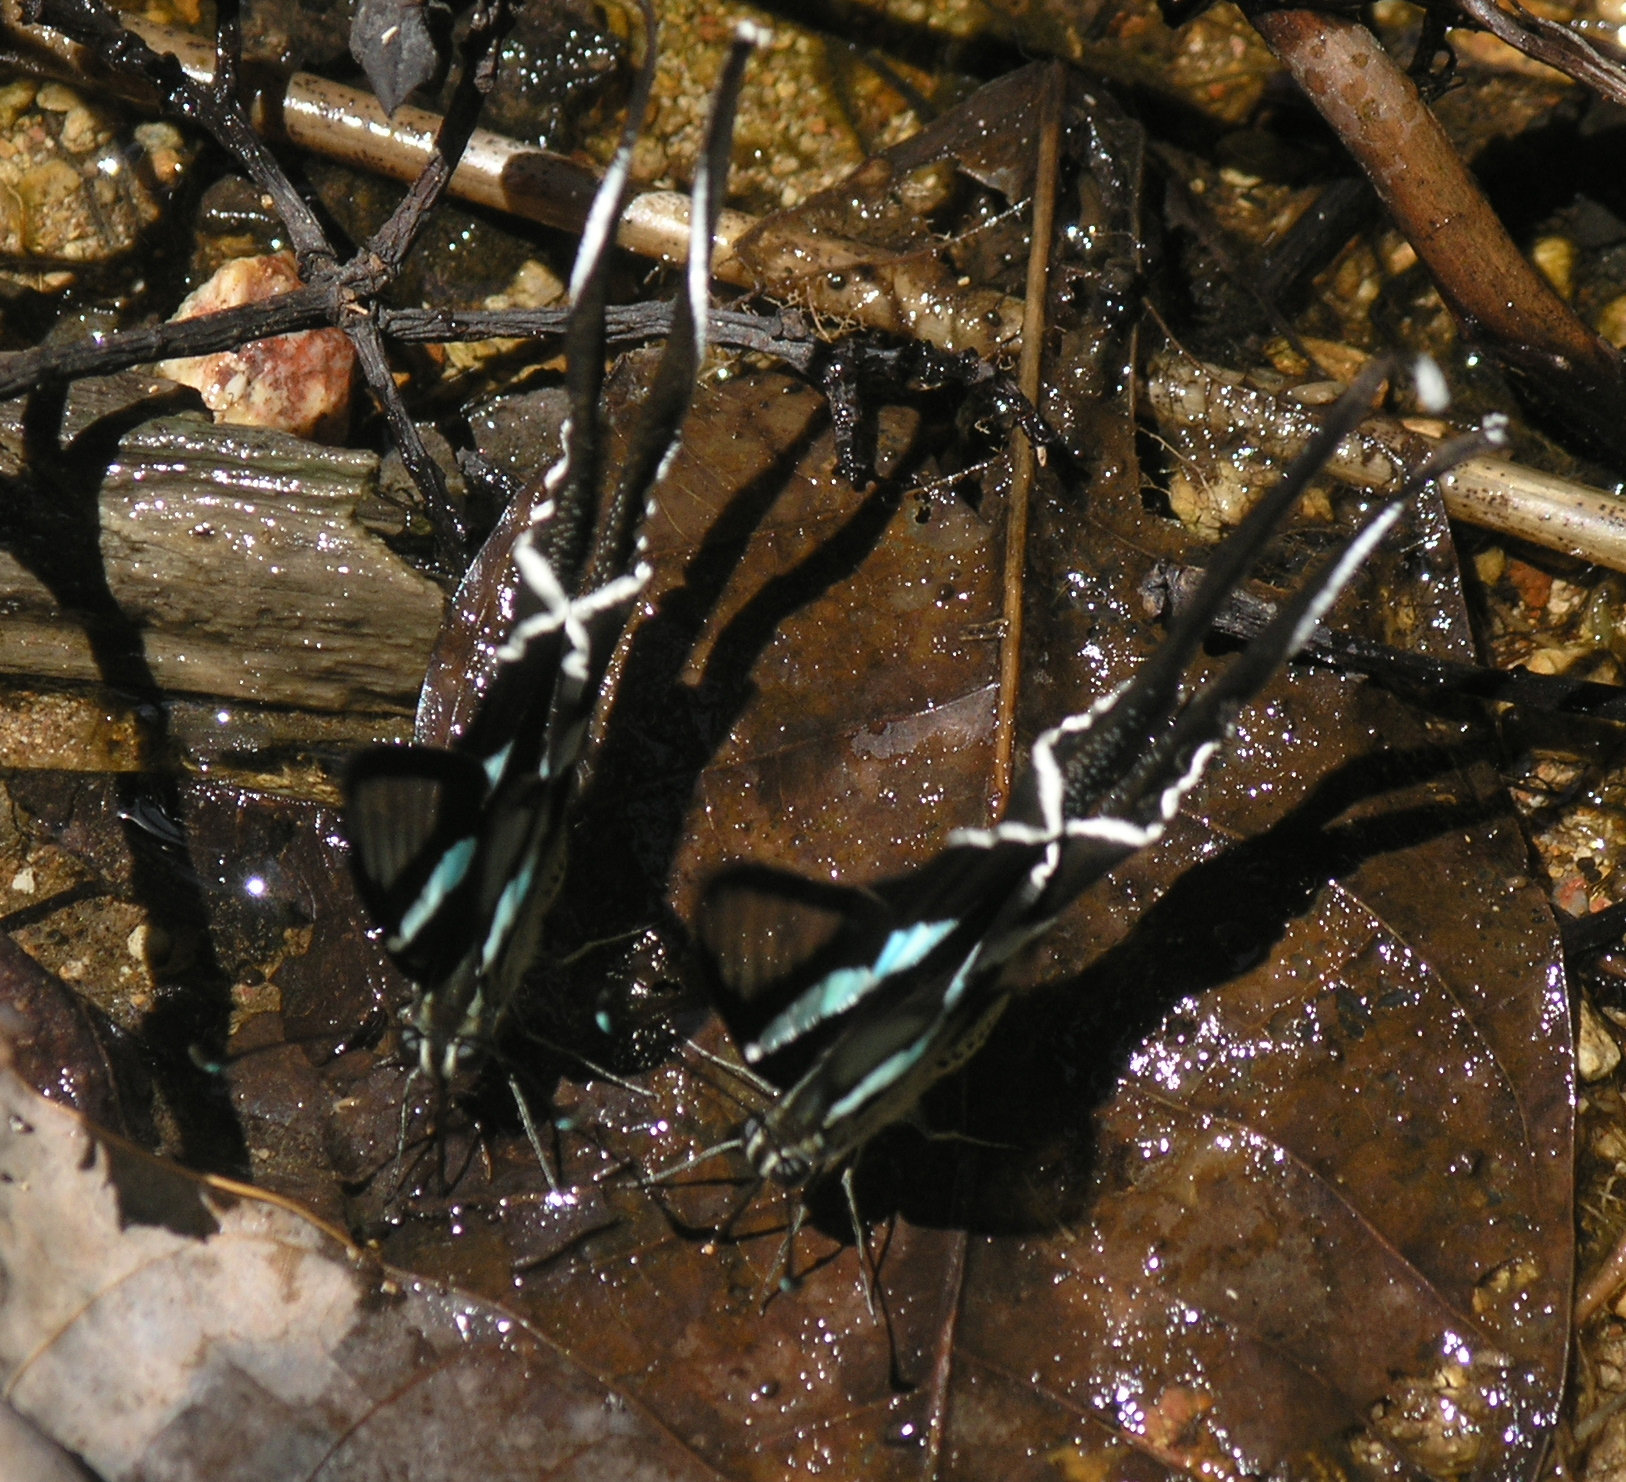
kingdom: Animalia
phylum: Arthropoda
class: Insecta
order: Lepidoptera
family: Papilionidae
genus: Lamproptera
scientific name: Lamproptera meges
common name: Green dragontail
